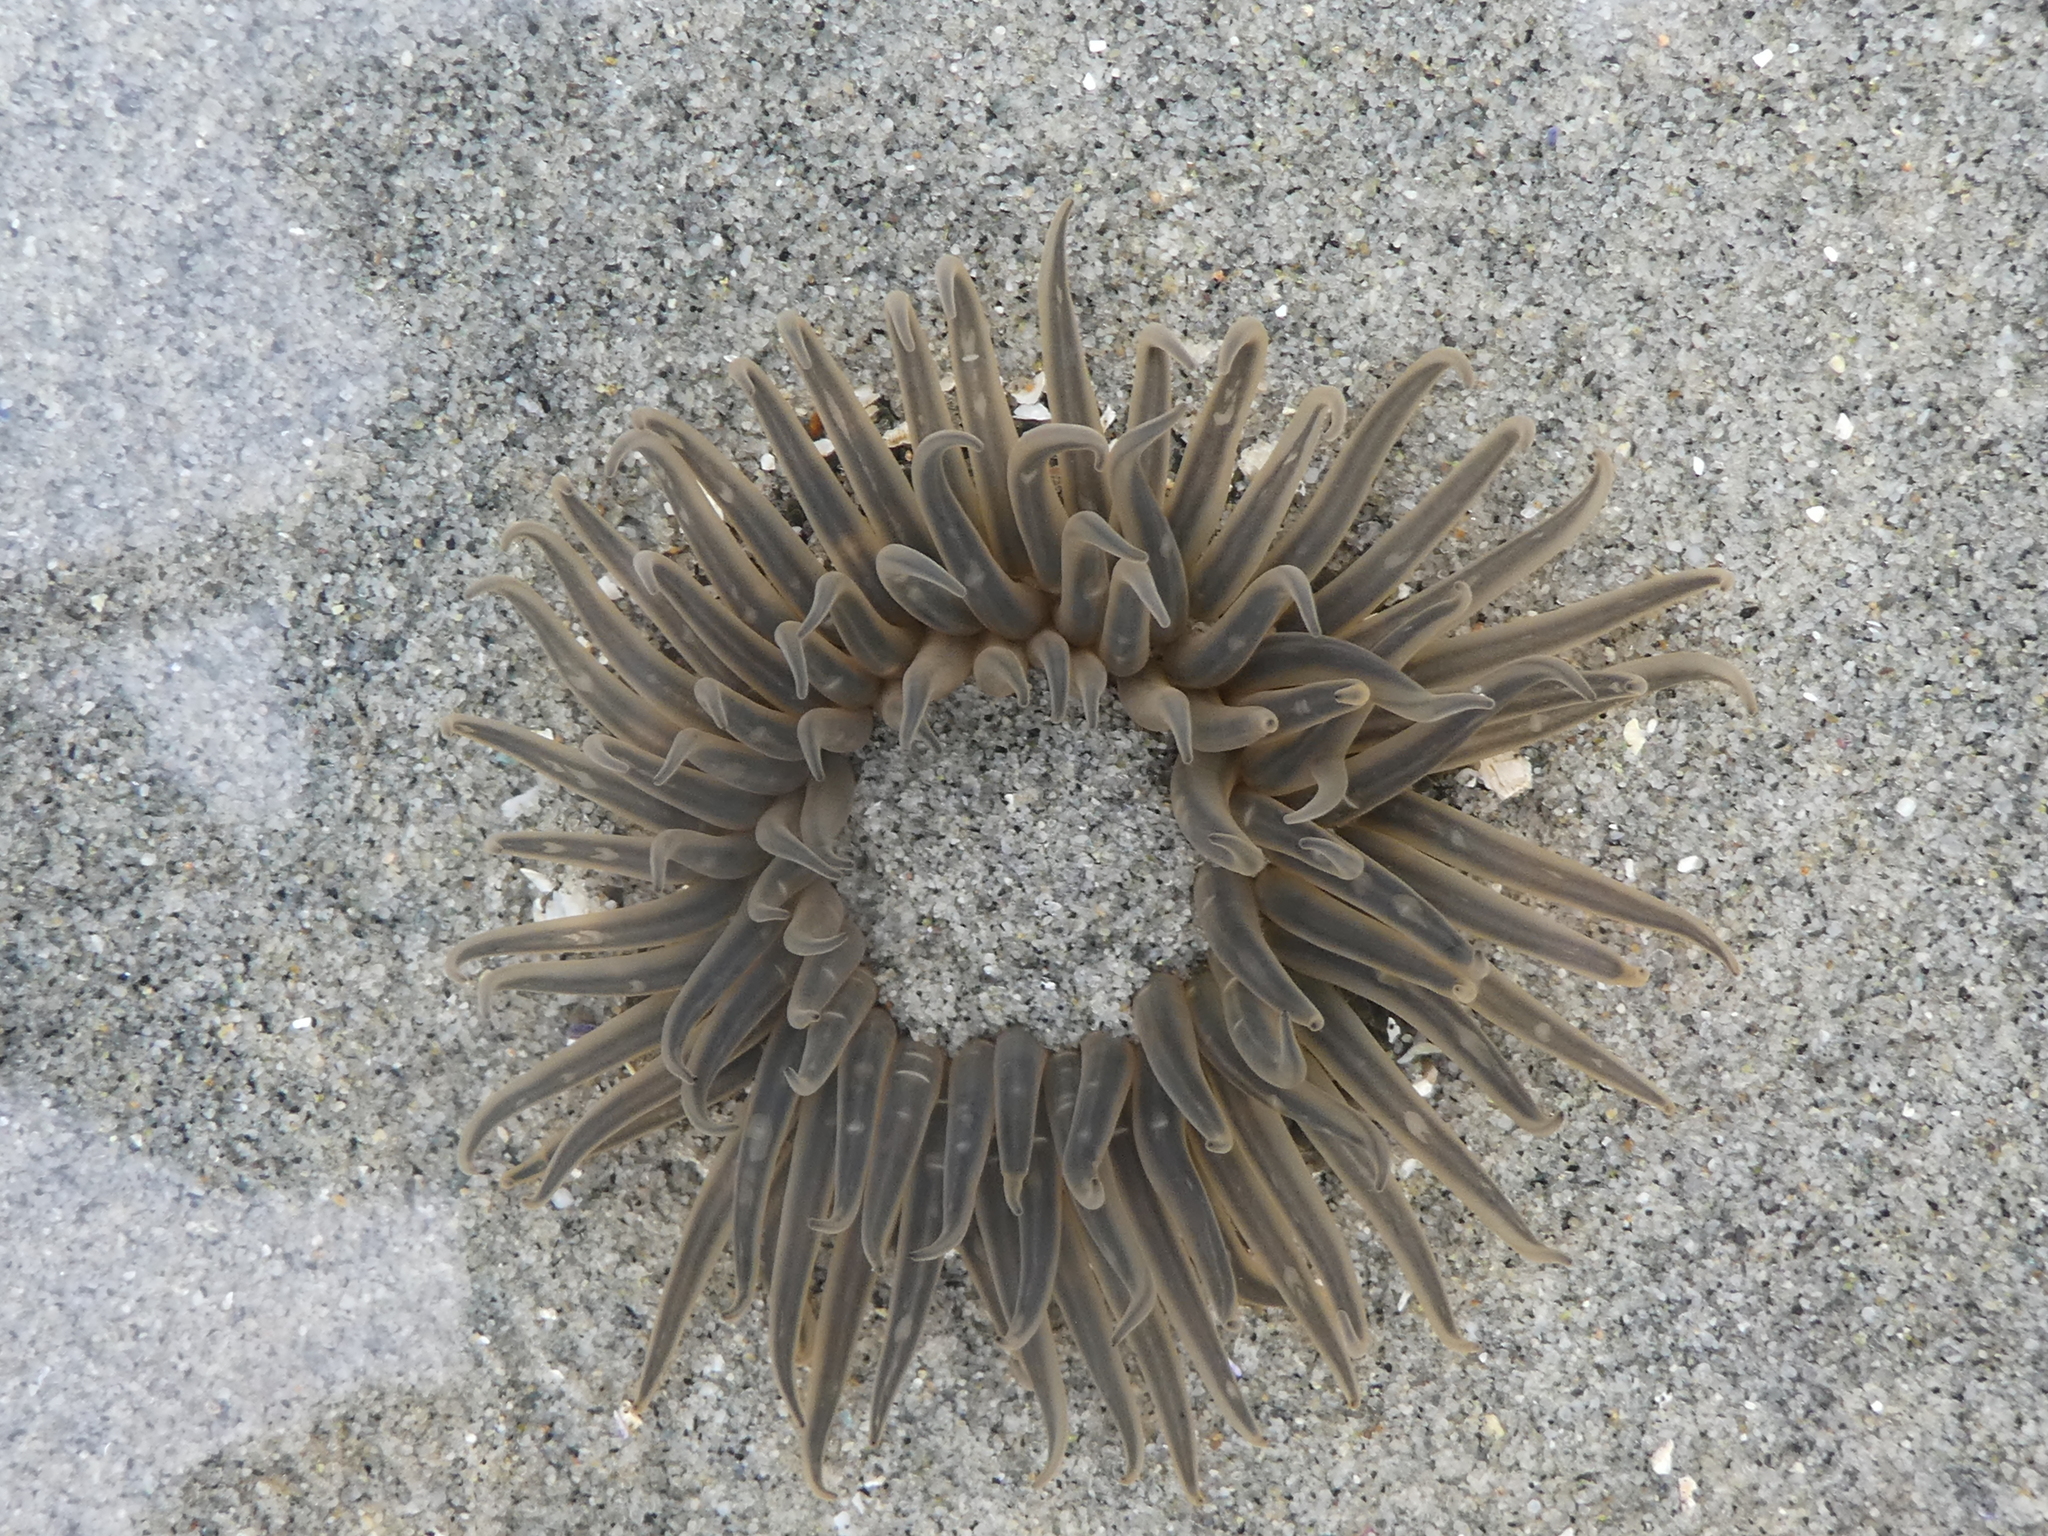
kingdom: Animalia
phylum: Cnidaria
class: Anthozoa
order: Actiniaria
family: Actiniidae
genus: Anthopleura
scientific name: Anthopleura artemisia
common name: Buried sea anemone
